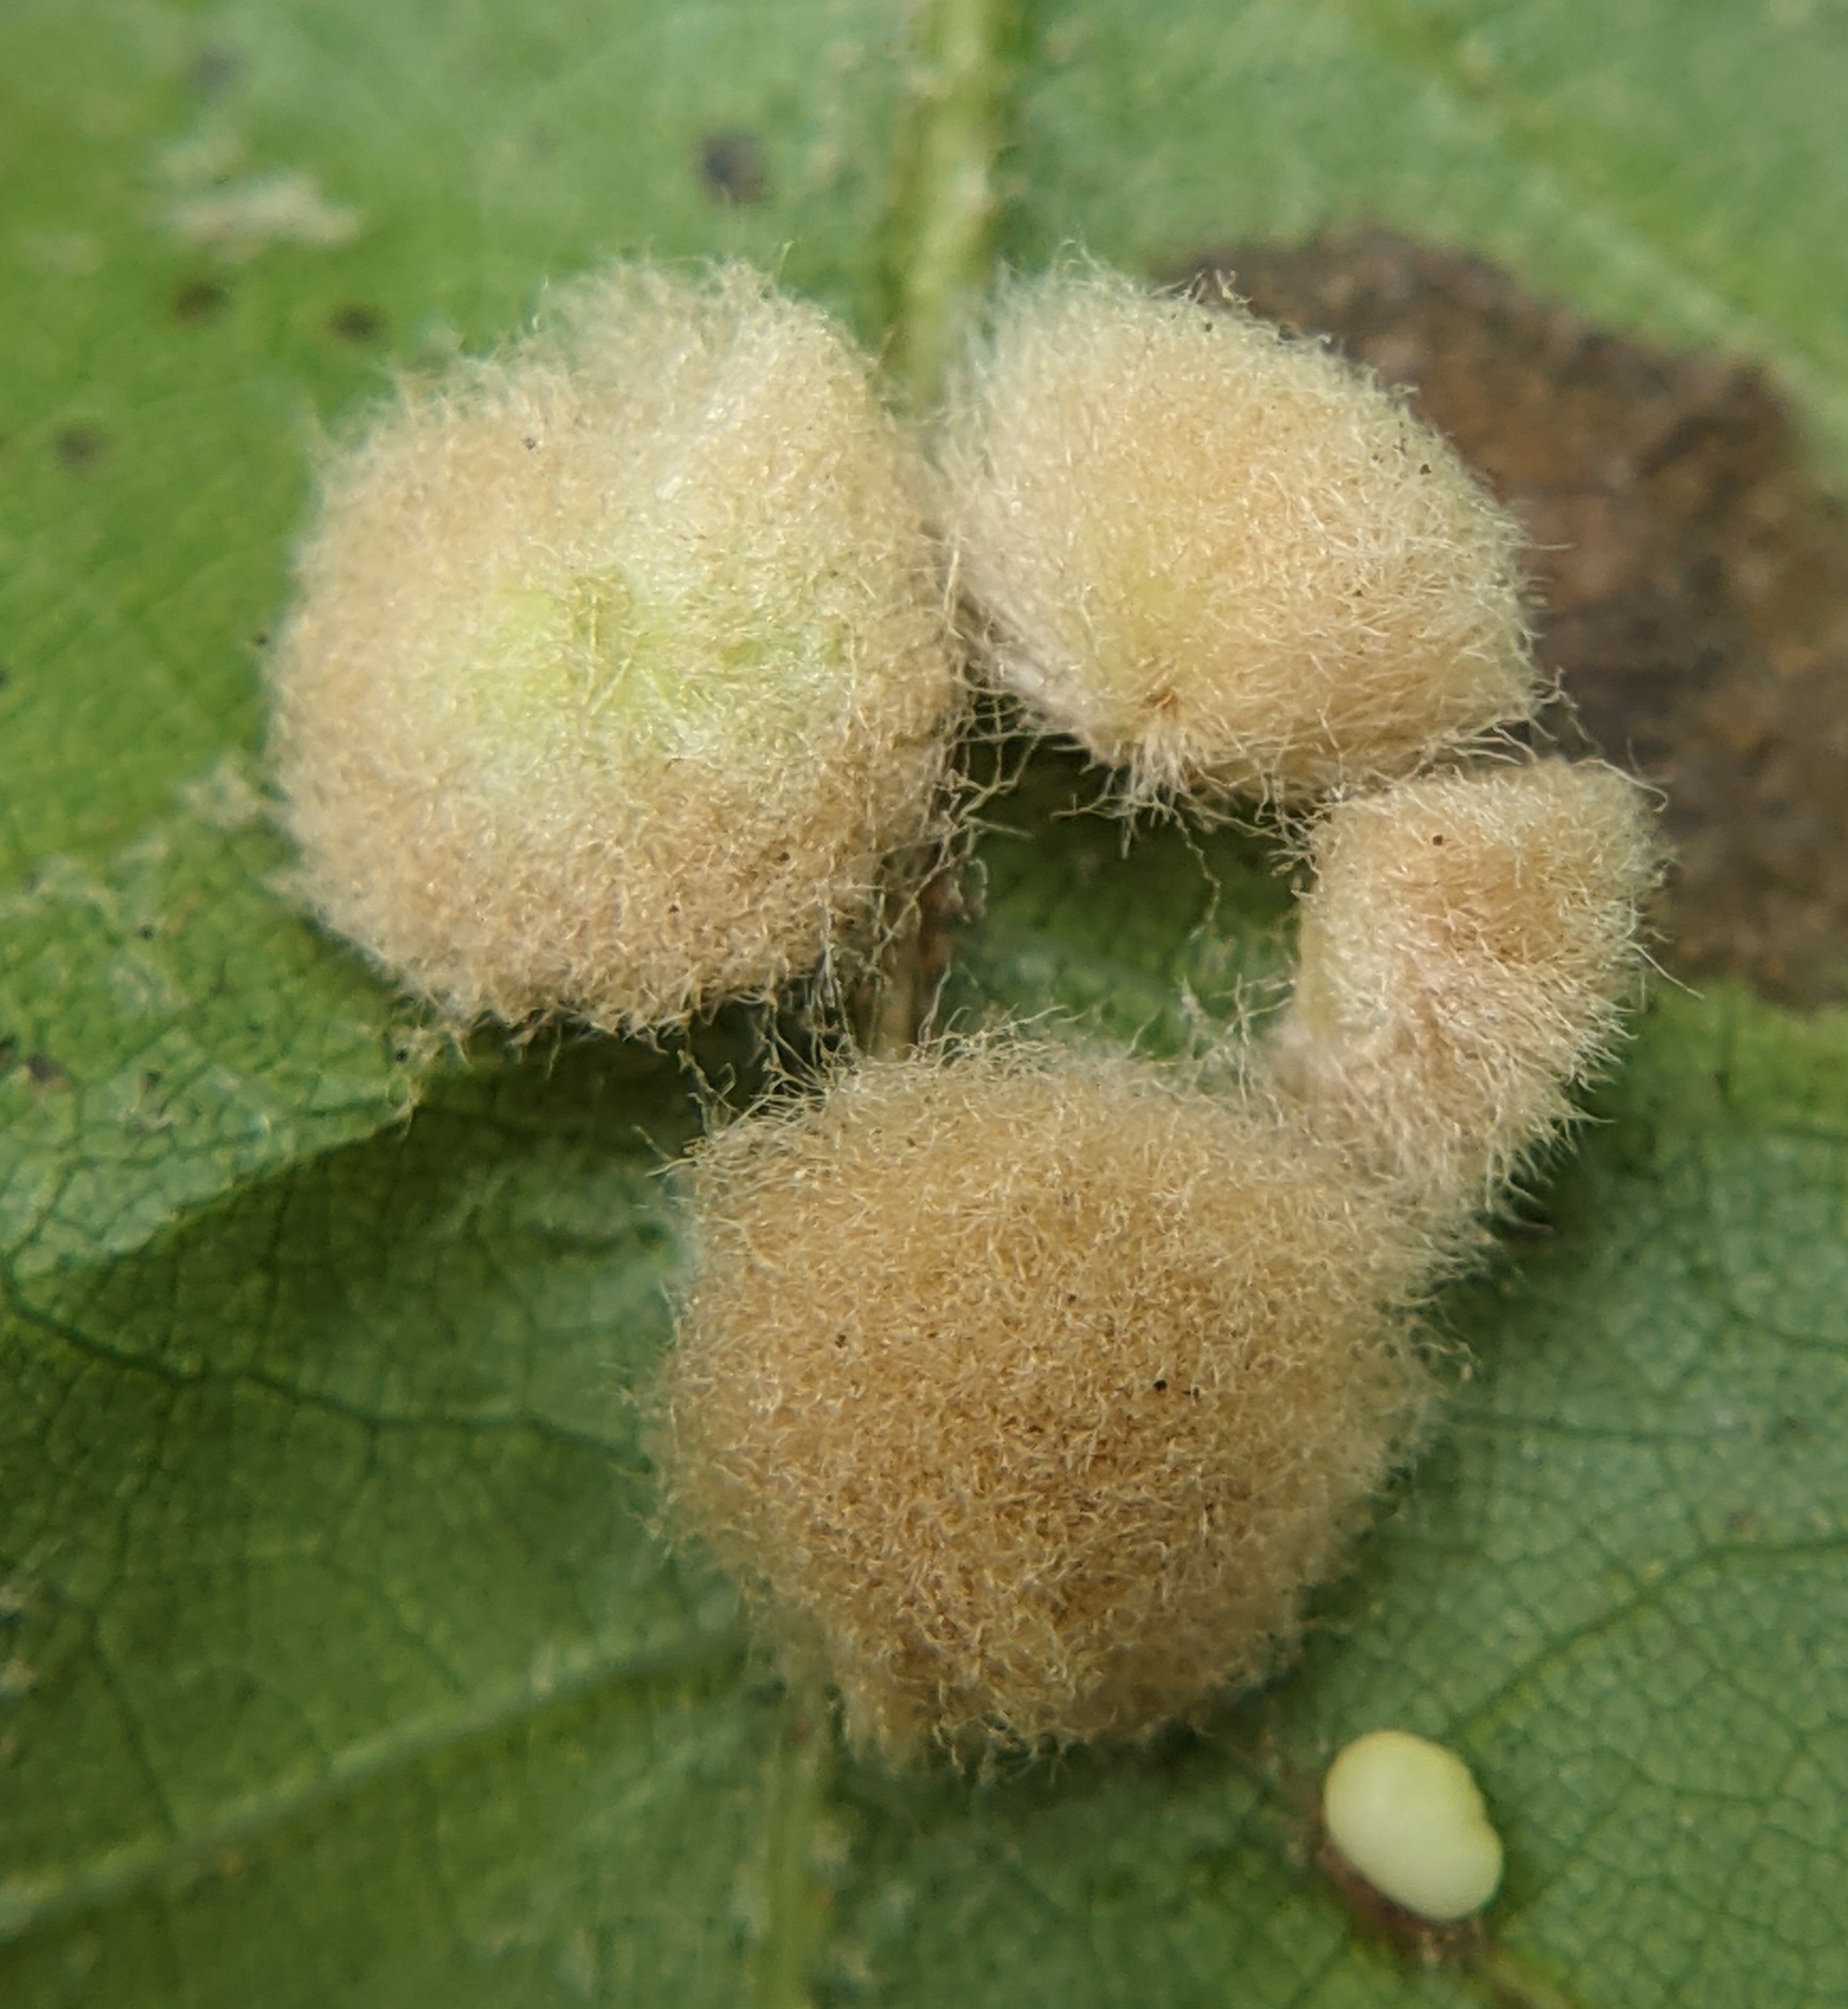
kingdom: Animalia
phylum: Arthropoda
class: Insecta
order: Hymenoptera
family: Cynipidae
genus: Callirhytis
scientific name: Callirhytis
